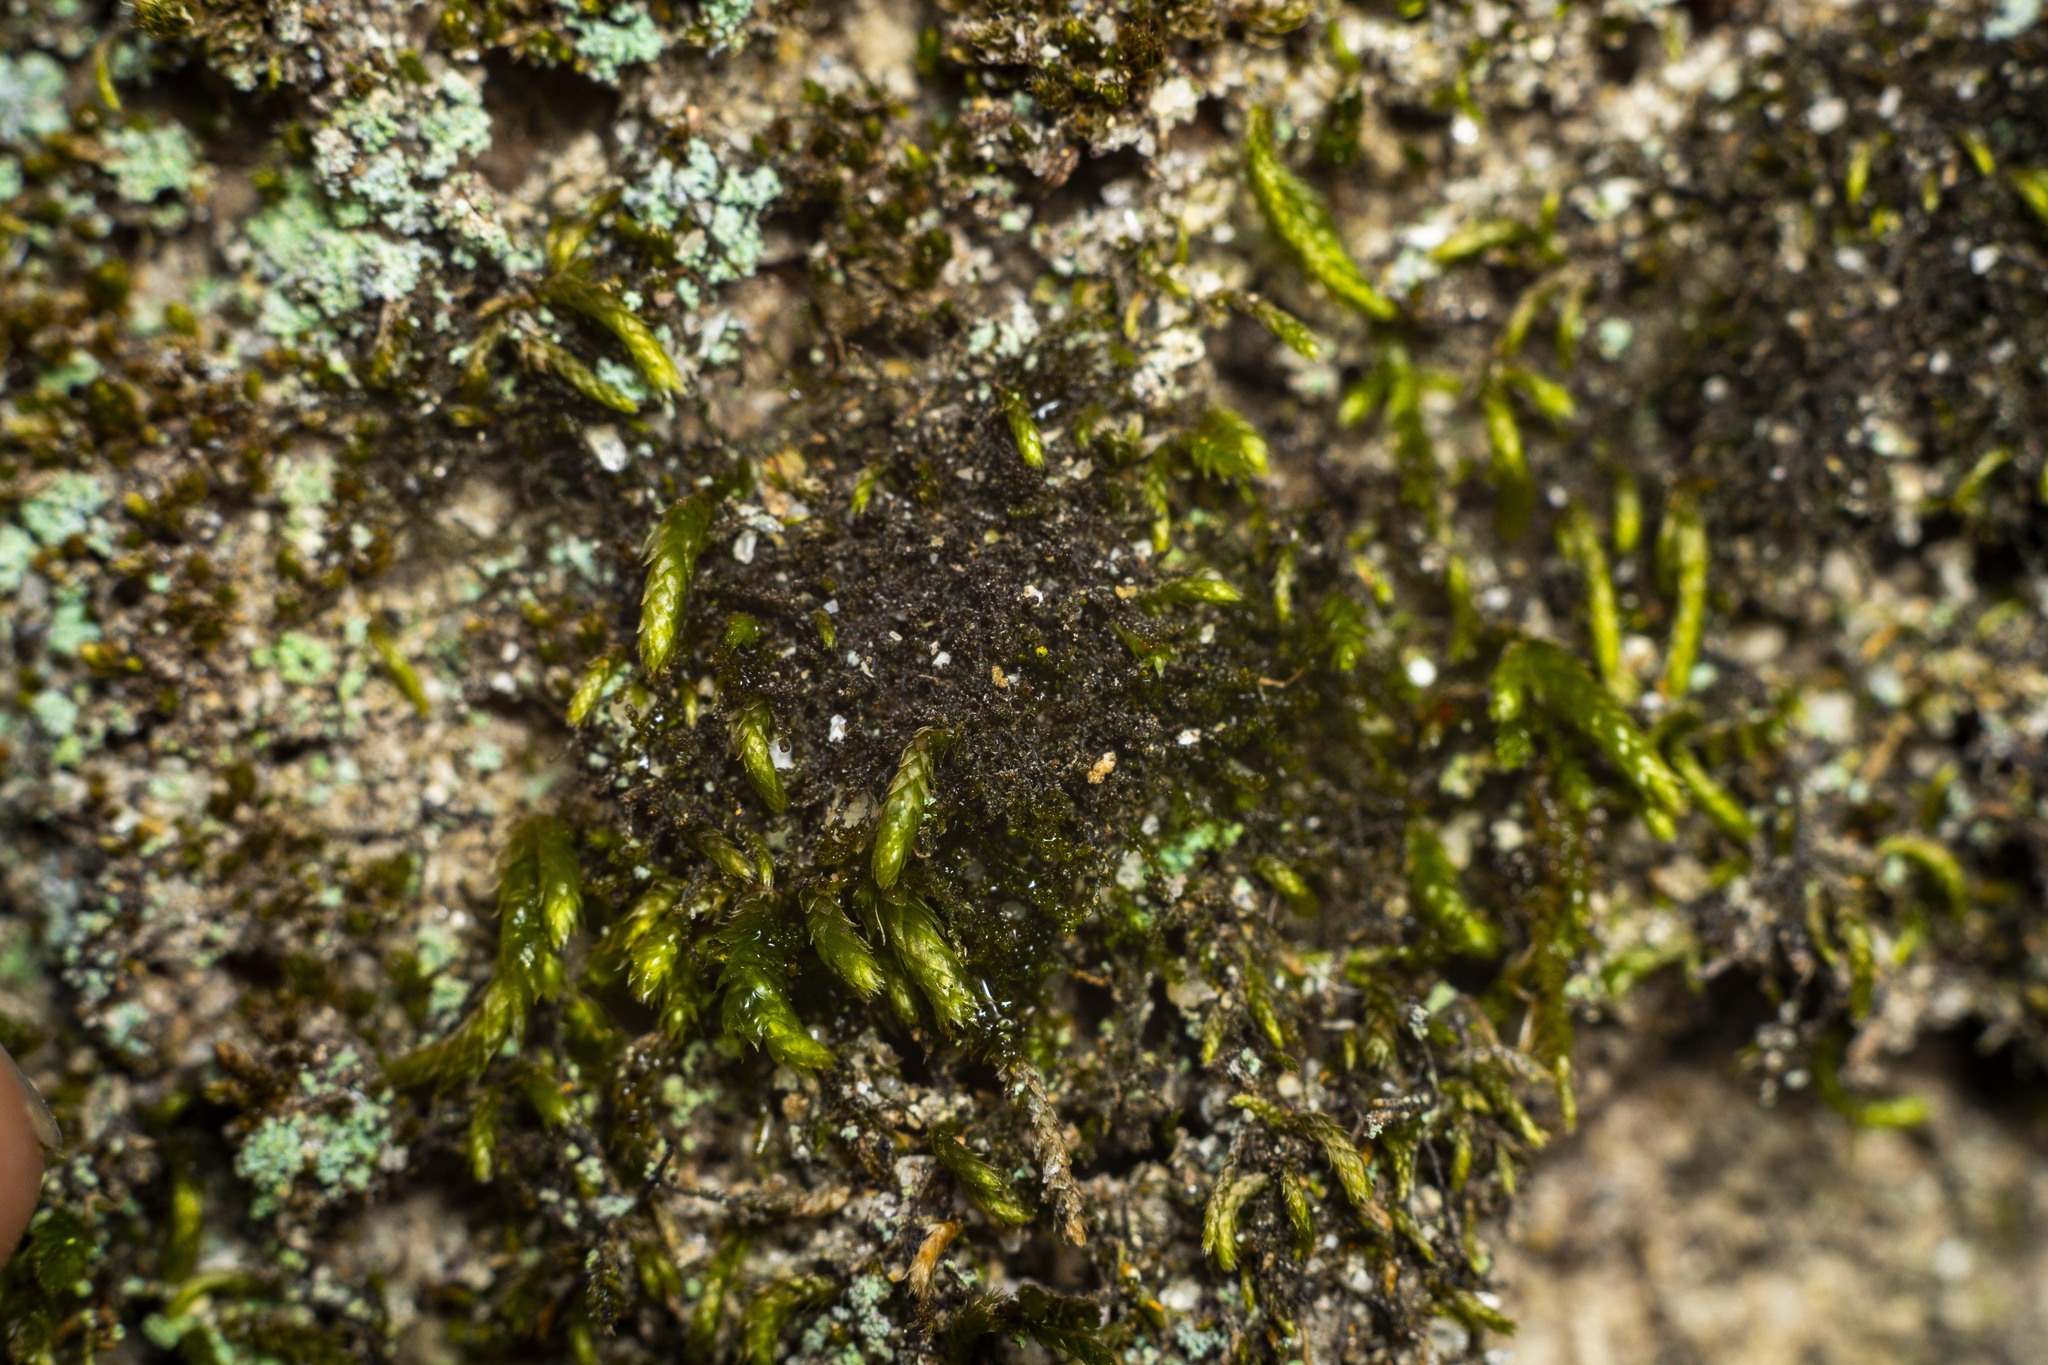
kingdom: Plantae
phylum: Marchantiophyta
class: Jungermanniopsida
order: Jungermanniales
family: Cephaloziellaceae
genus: Cephaloziella
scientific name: Cephaloziella divaricata
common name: Spreading threadwort
